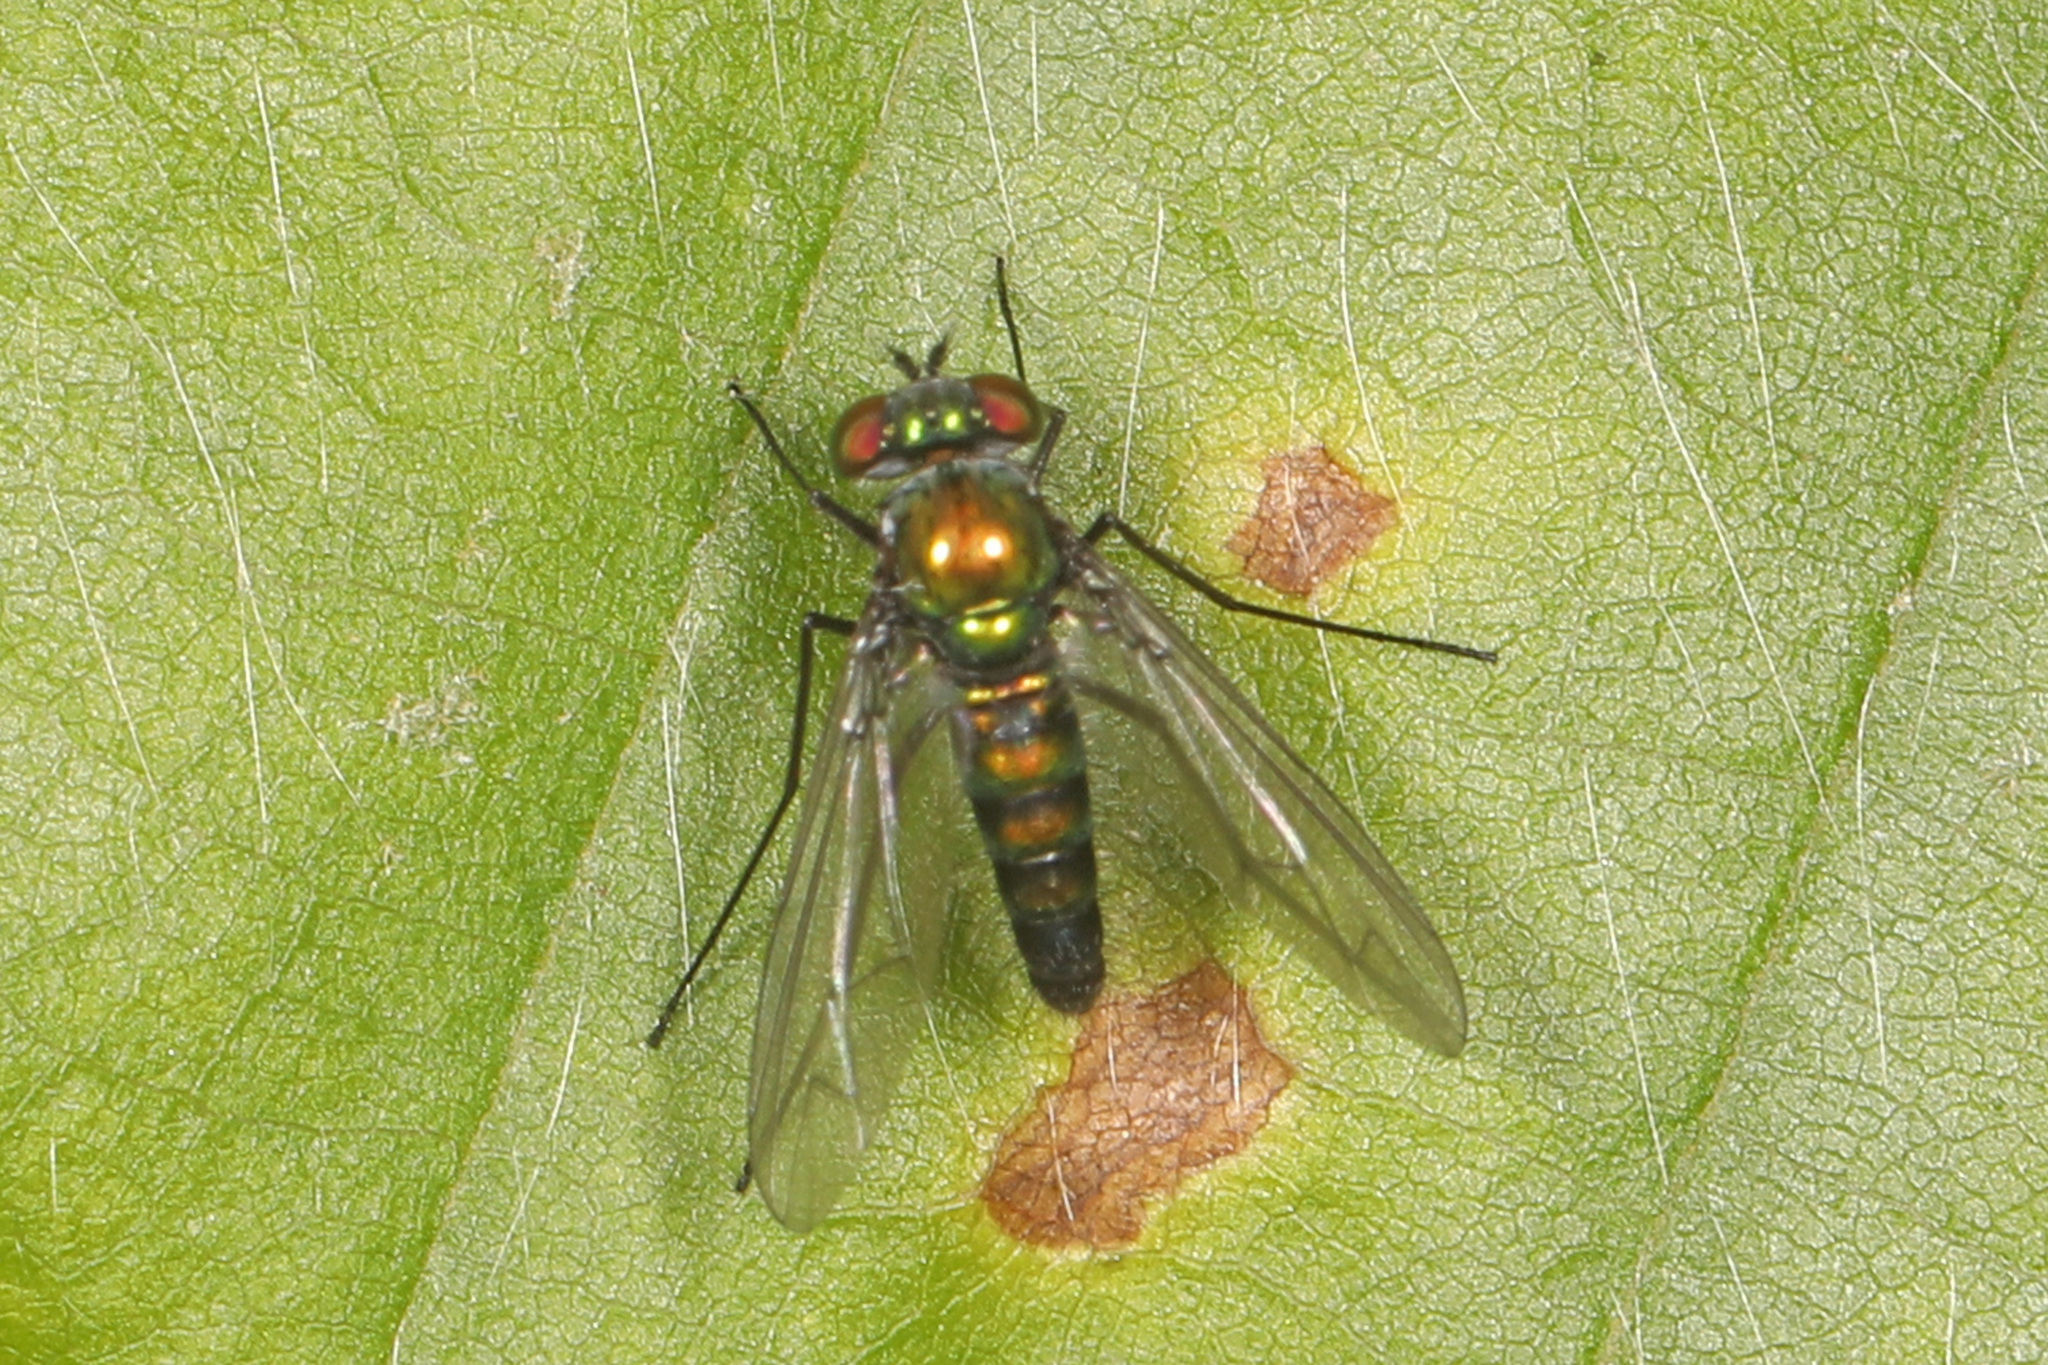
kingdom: Animalia
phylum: Arthropoda
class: Insecta
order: Diptera
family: Dolichopodidae
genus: Condylostylus
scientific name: Condylostylus patibulatus
